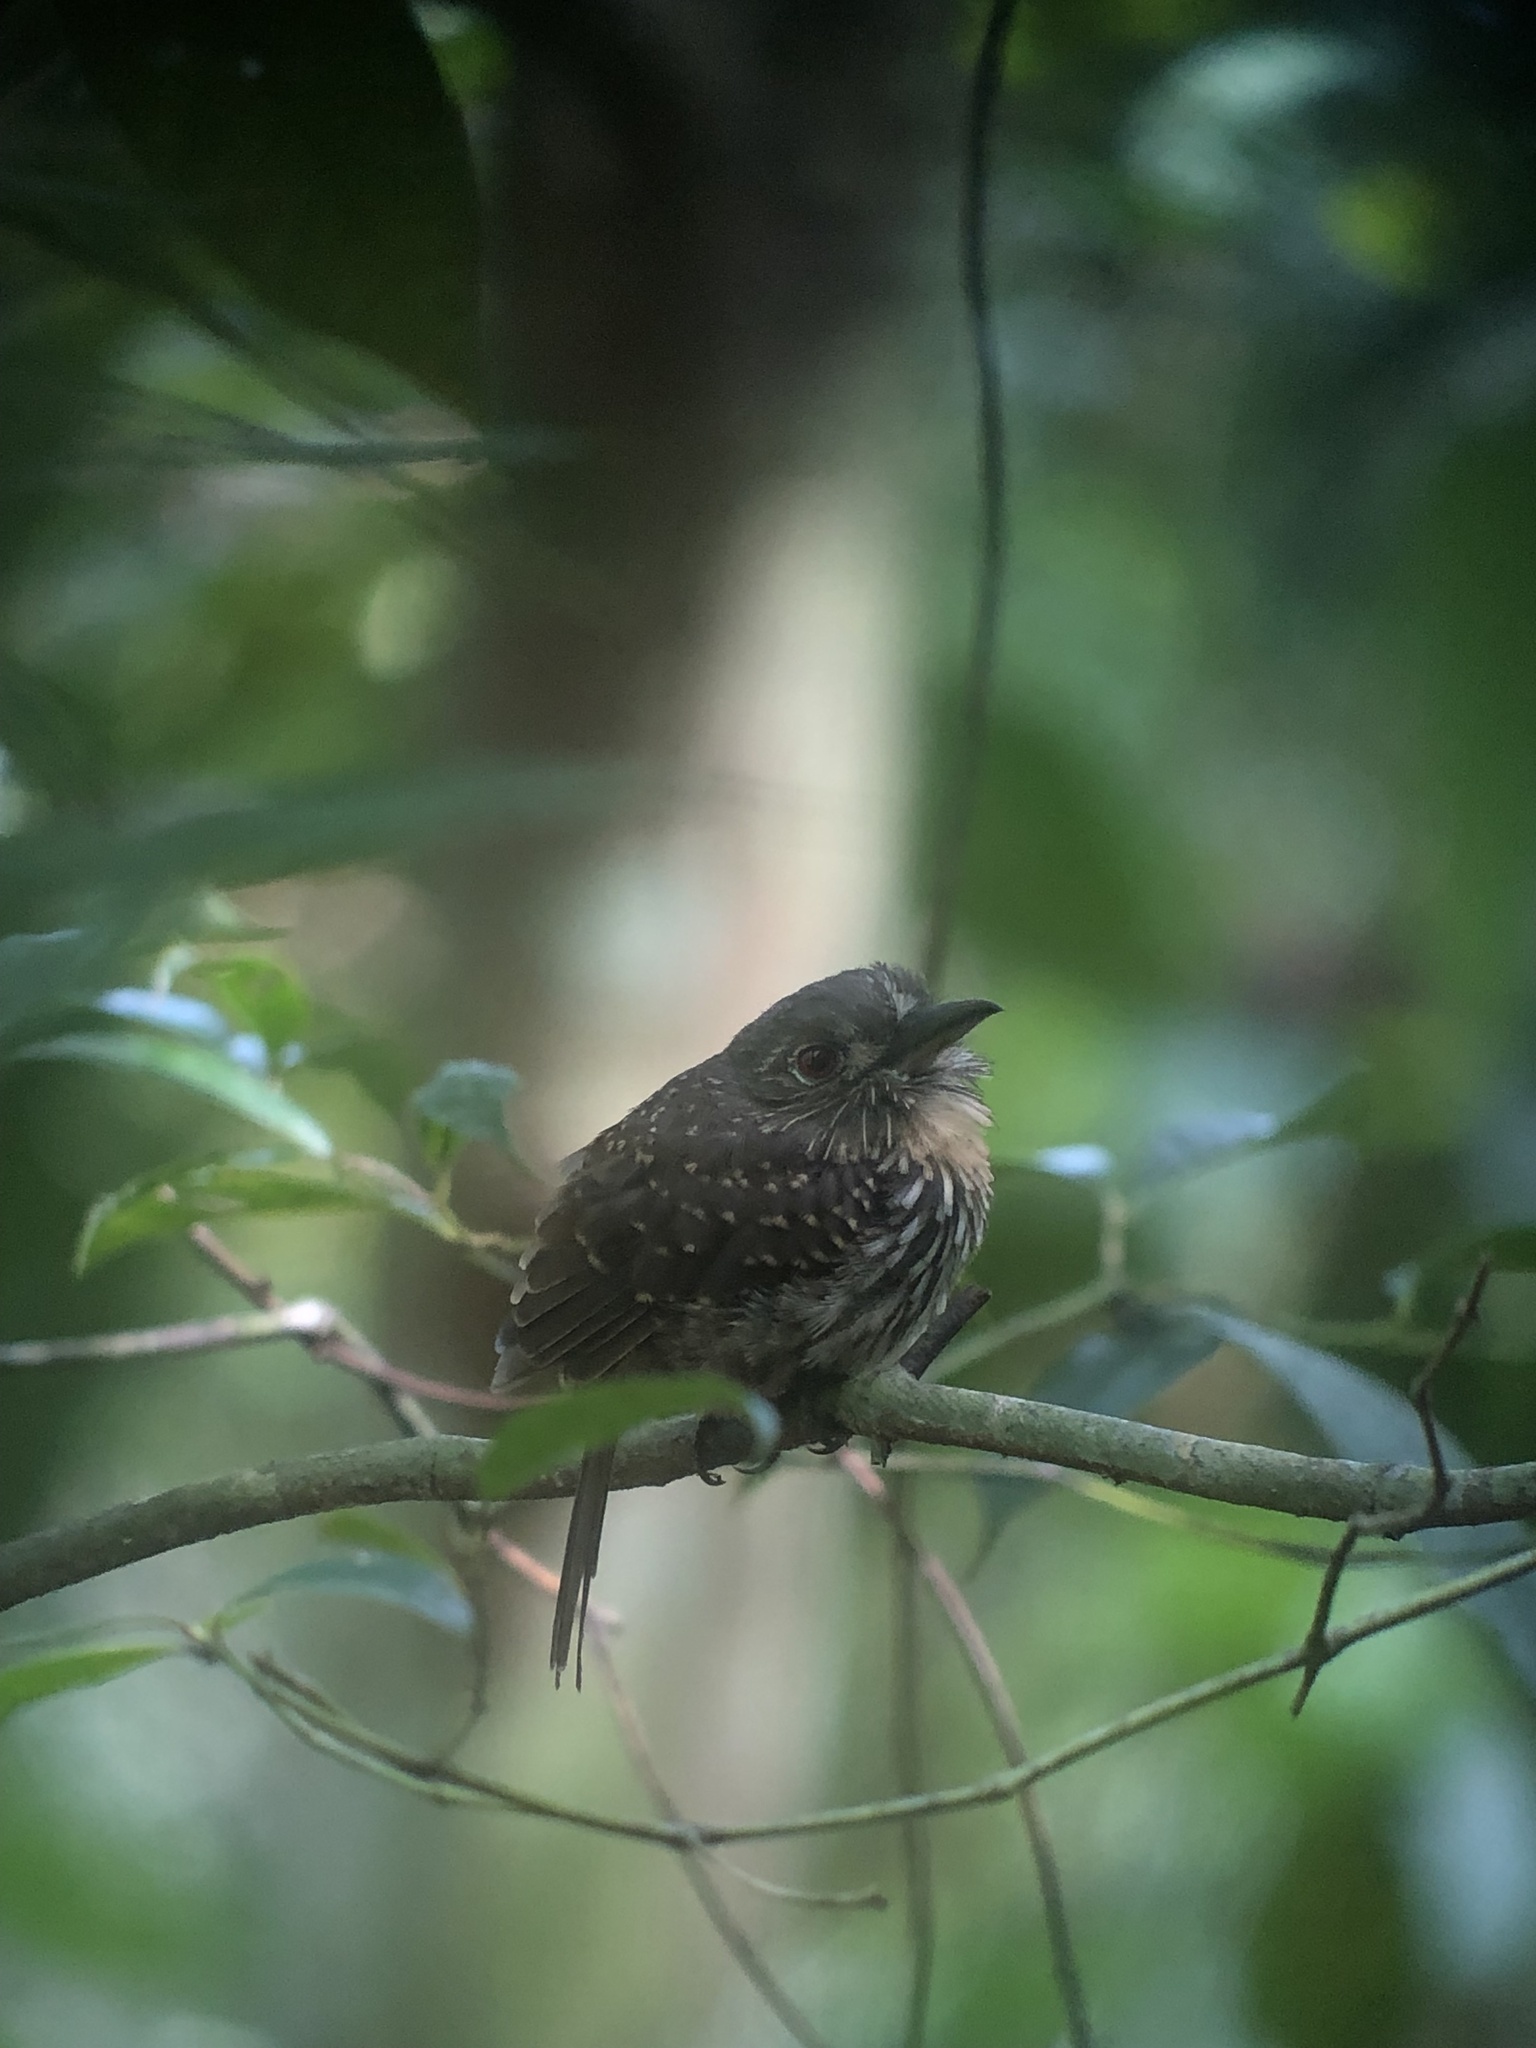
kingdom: Animalia
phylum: Chordata
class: Aves
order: Piciformes
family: Bucconidae
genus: Malacoptila
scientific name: Malacoptila panamensis
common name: White-whiskered puffbird
